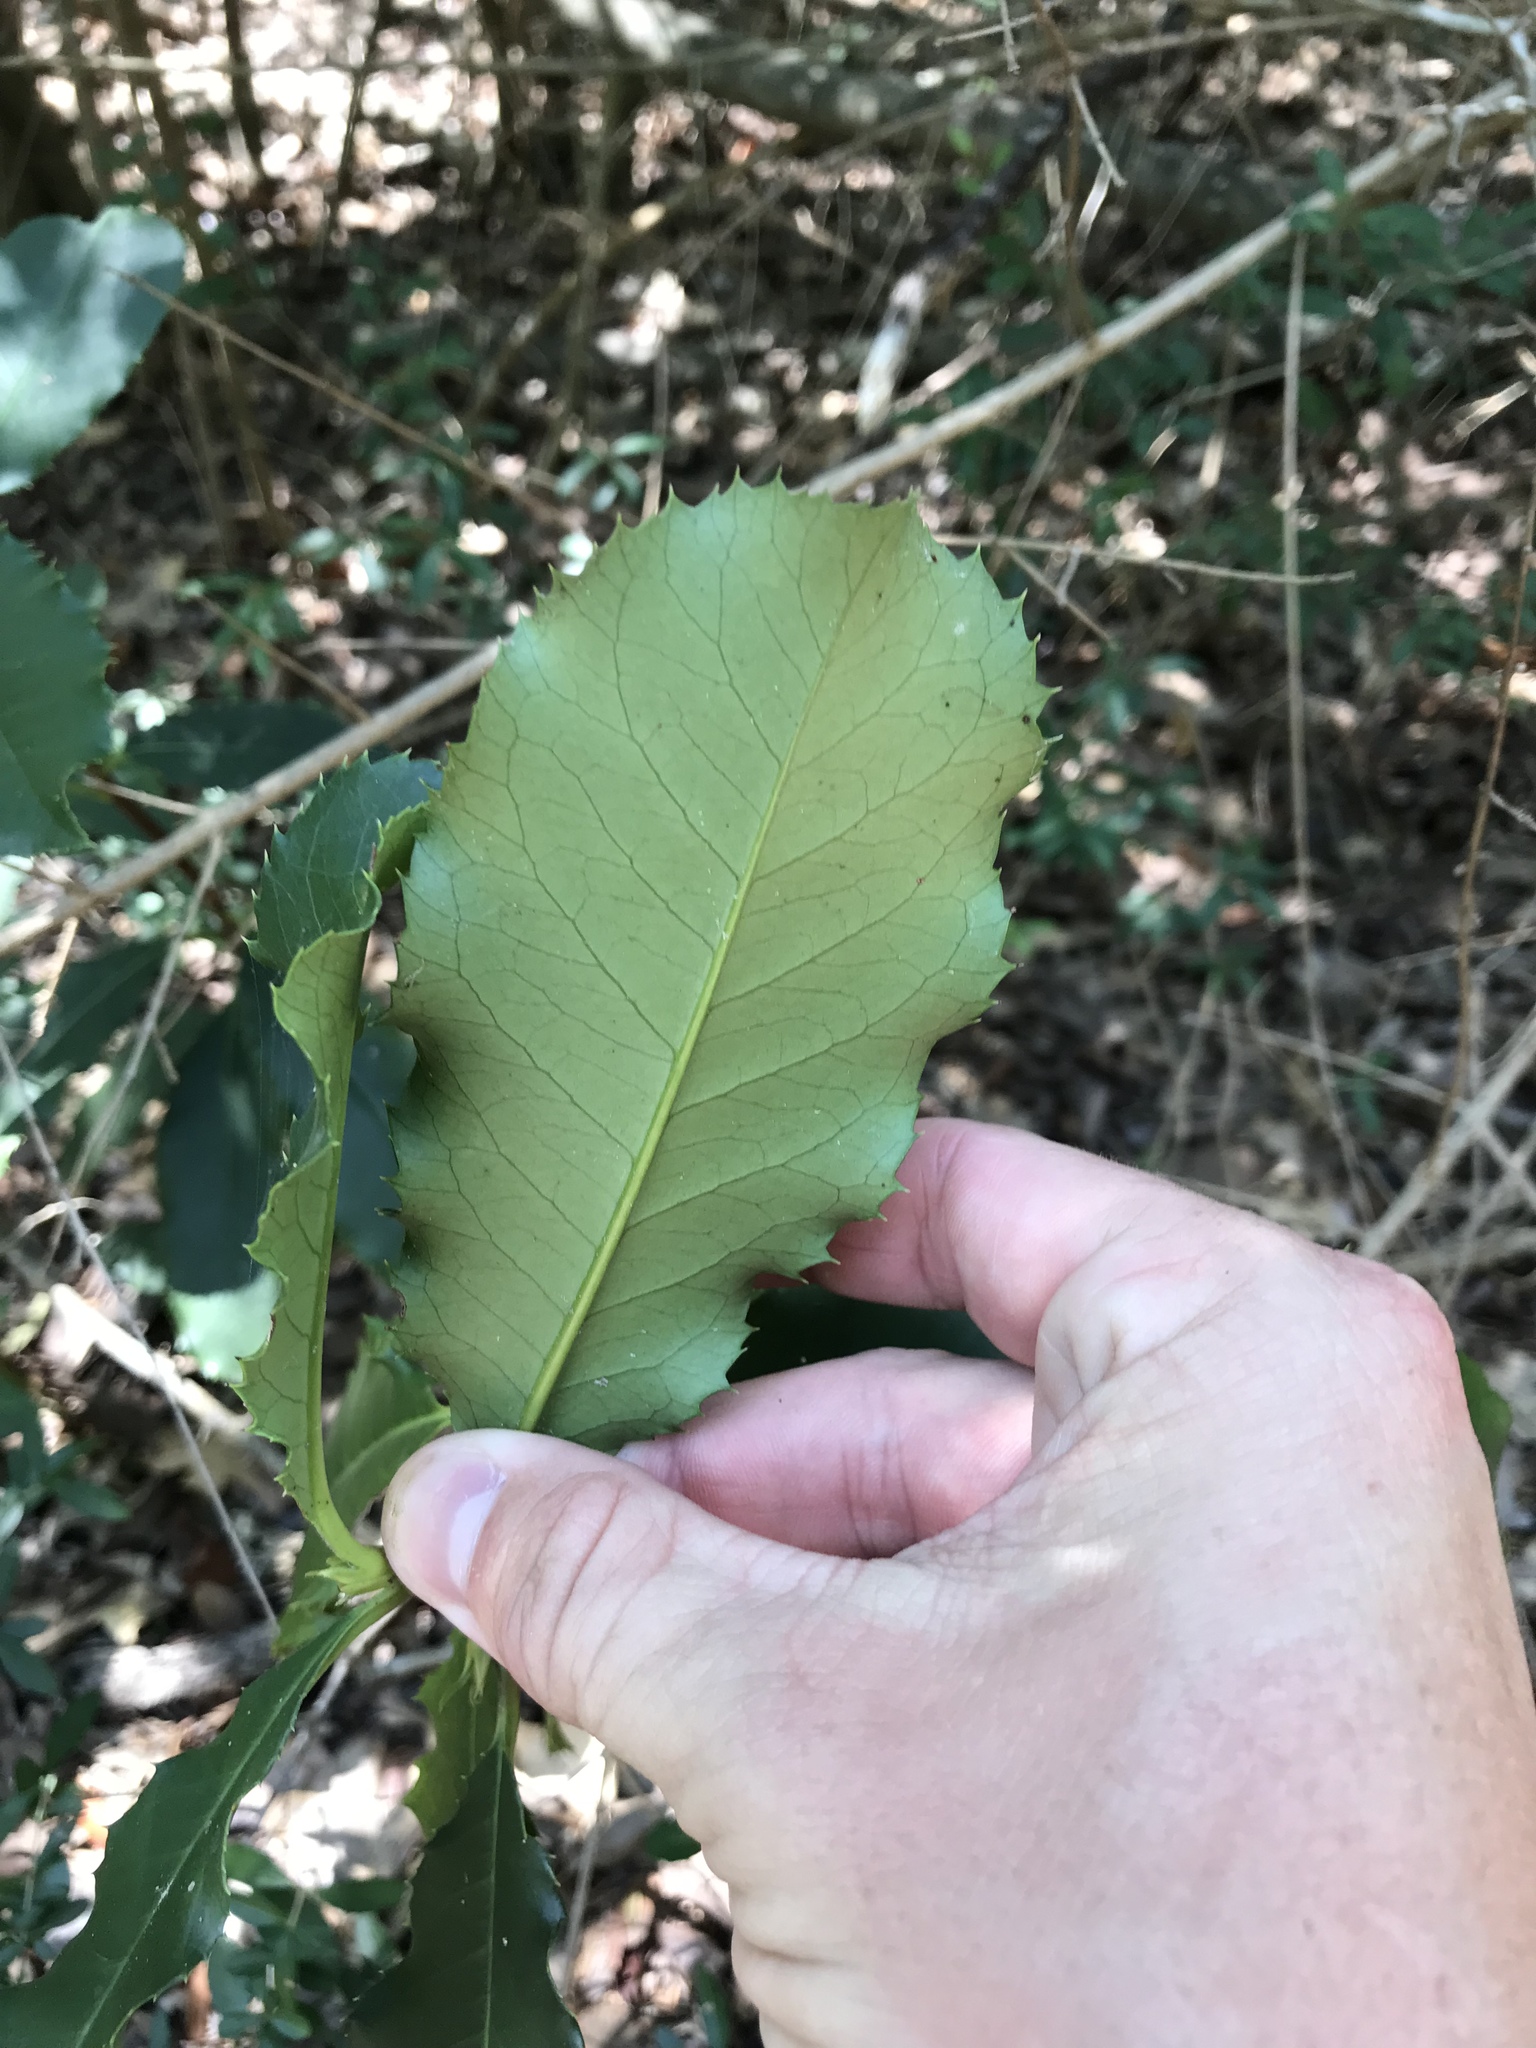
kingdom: Plantae
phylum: Tracheophyta
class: Magnoliopsida
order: Rosales
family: Rosaceae
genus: Photinia
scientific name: Photinia serratifolia
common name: Taiwanese photinia
